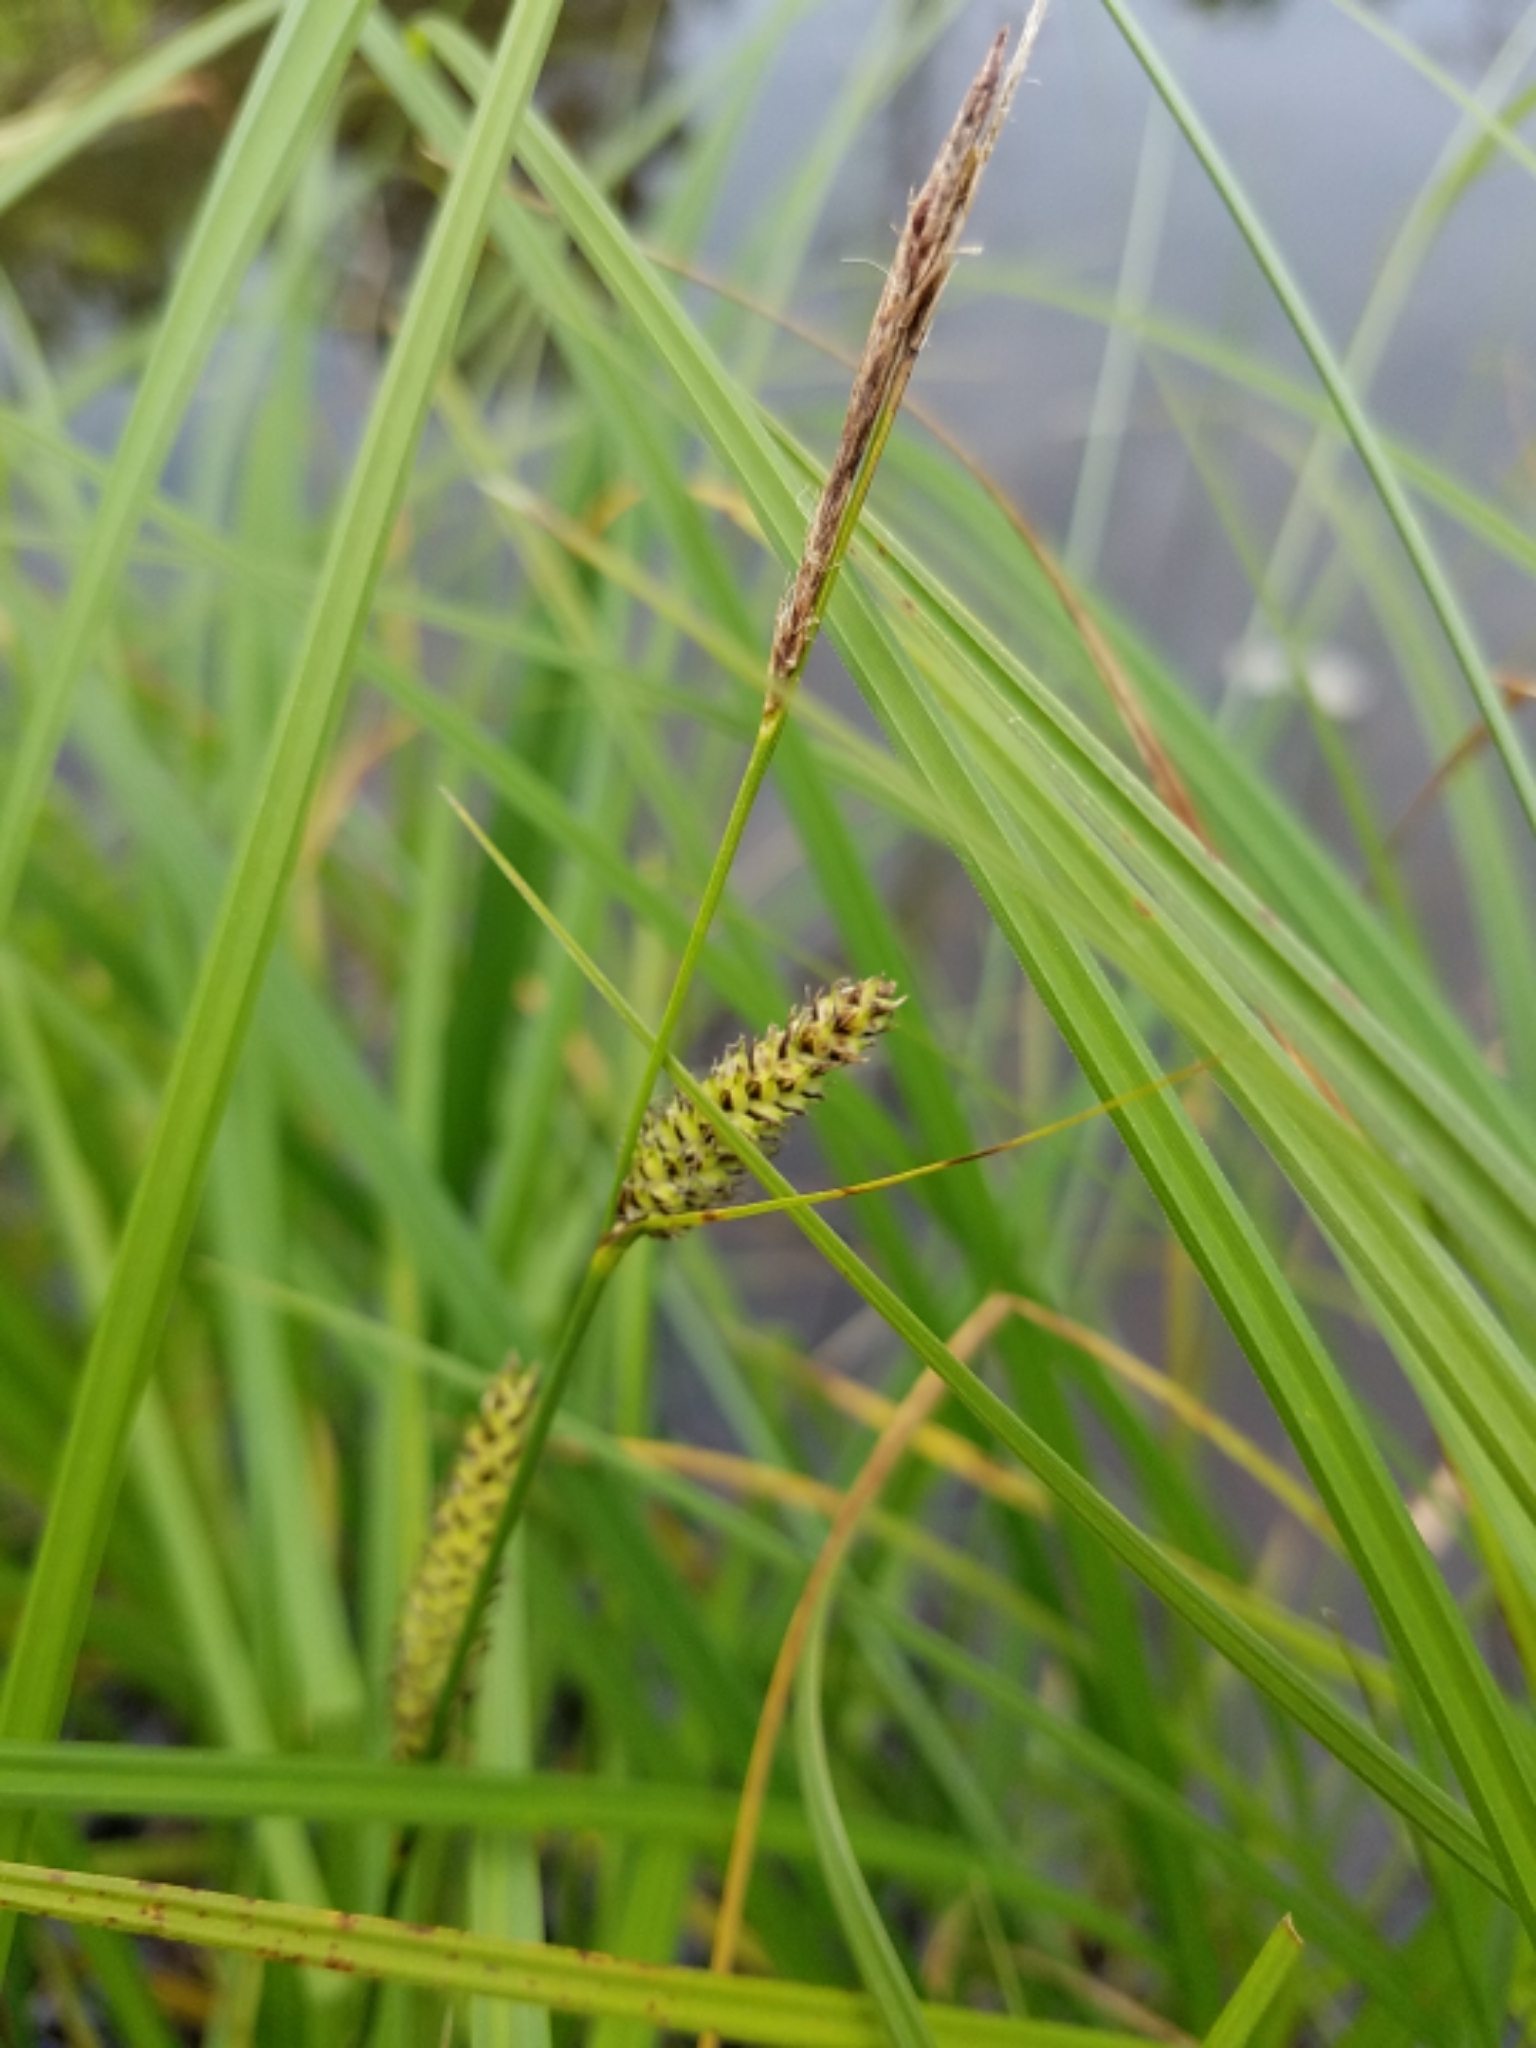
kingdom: Plantae
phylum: Tracheophyta
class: Liliopsida
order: Poales
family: Cyperaceae
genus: Carex
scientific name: Carex lasiocarpa
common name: Slender sedge
